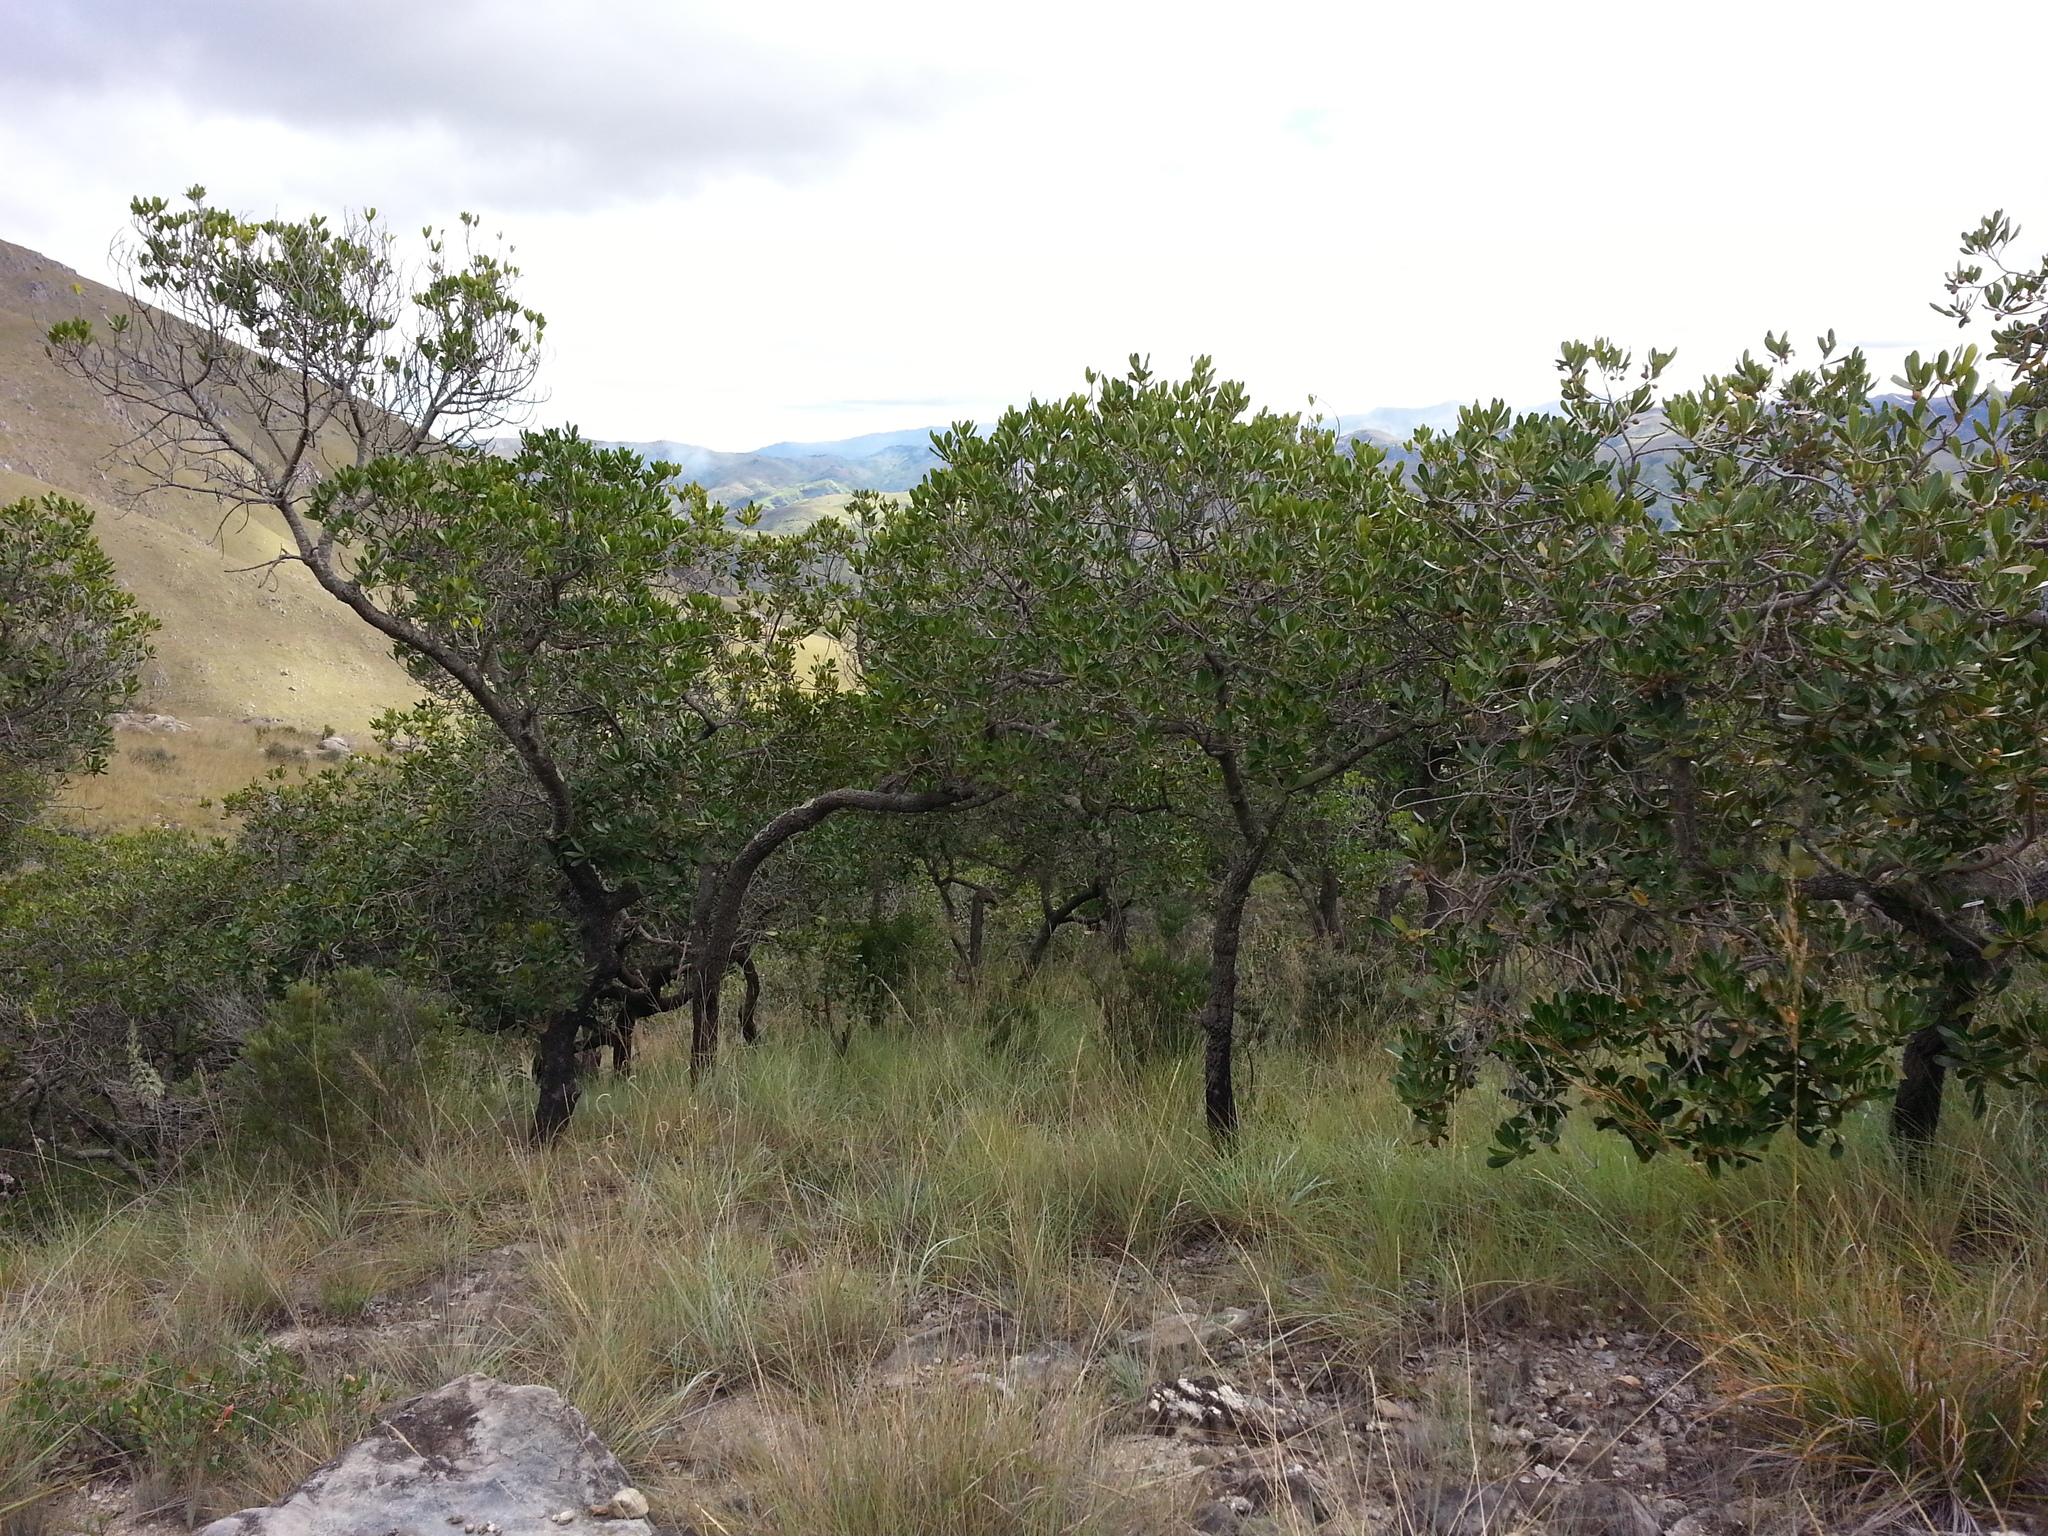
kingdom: Plantae
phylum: Tracheophyta
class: Magnoliopsida
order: Malpighiales
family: Phyllanthaceae
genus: Uapaca
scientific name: Uapaca bojeri
